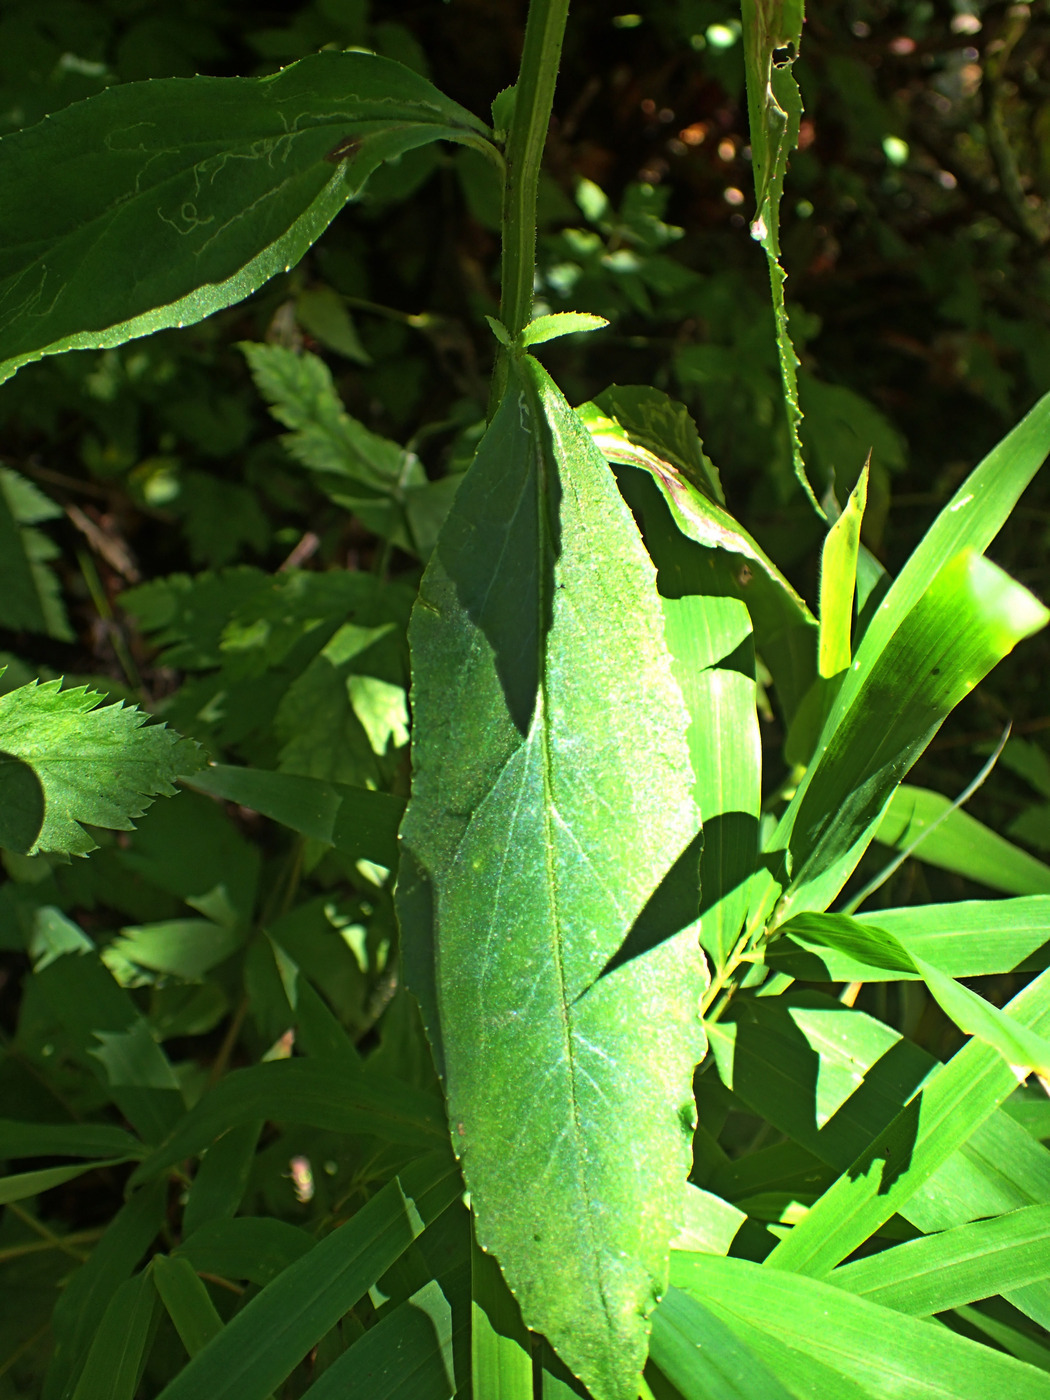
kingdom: Plantae
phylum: Tracheophyta
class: Magnoliopsida
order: Asterales
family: Campanulaceae
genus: Lobelia
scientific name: Lobelia siphilitica
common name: Great lobelia
